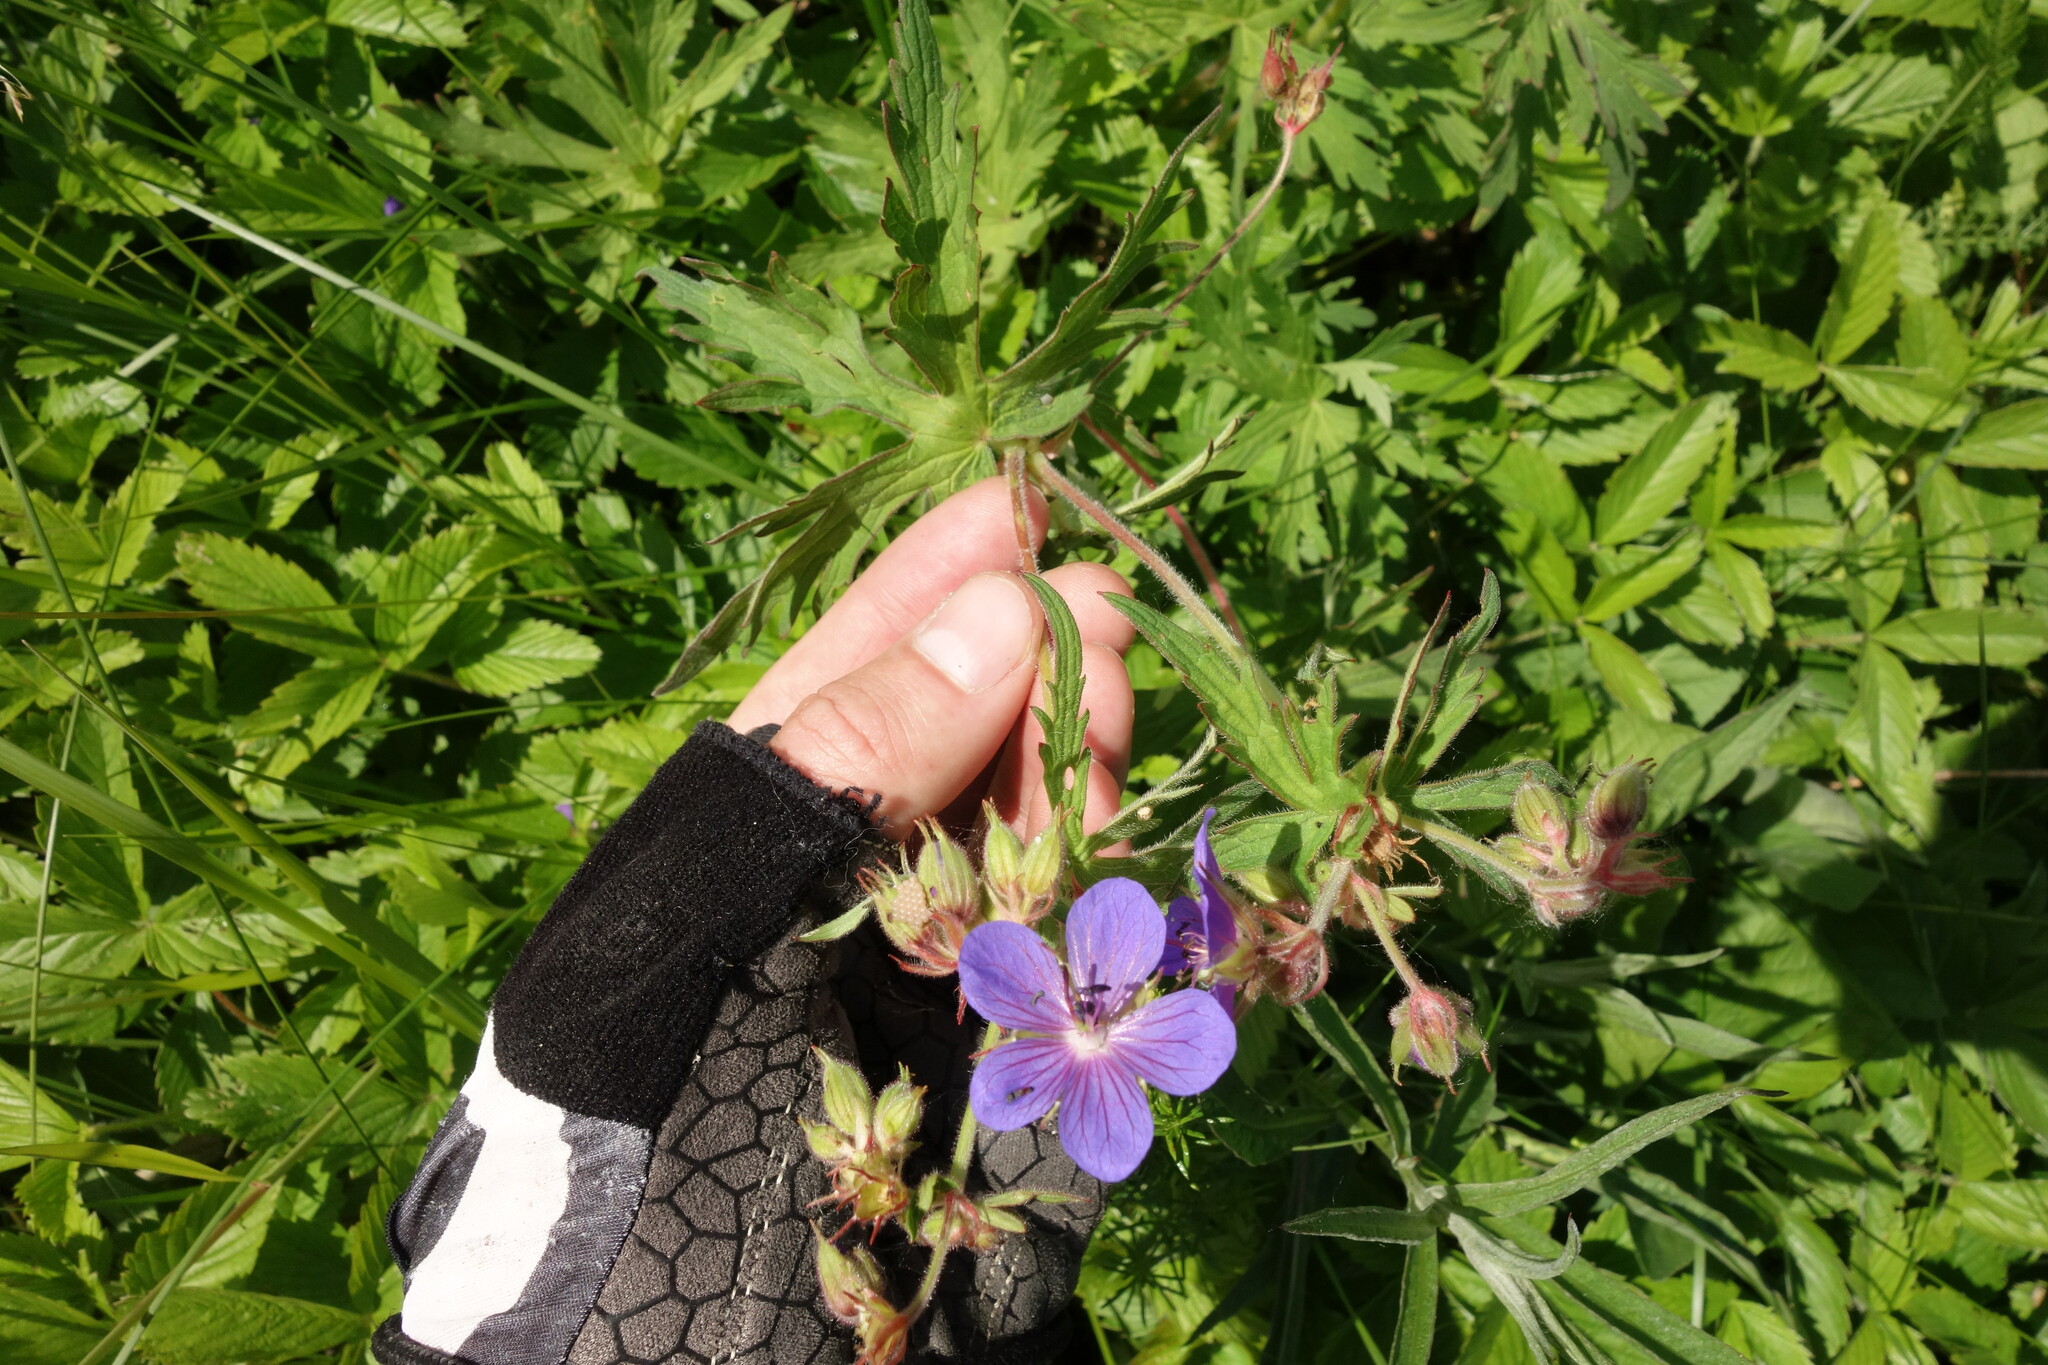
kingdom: Plantae
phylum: Tracheophyta
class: Magnoliopsida
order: Geraniales
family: Geraniaceae
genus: Geranium
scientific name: Geranium pratense
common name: Meadow crane's-bill
